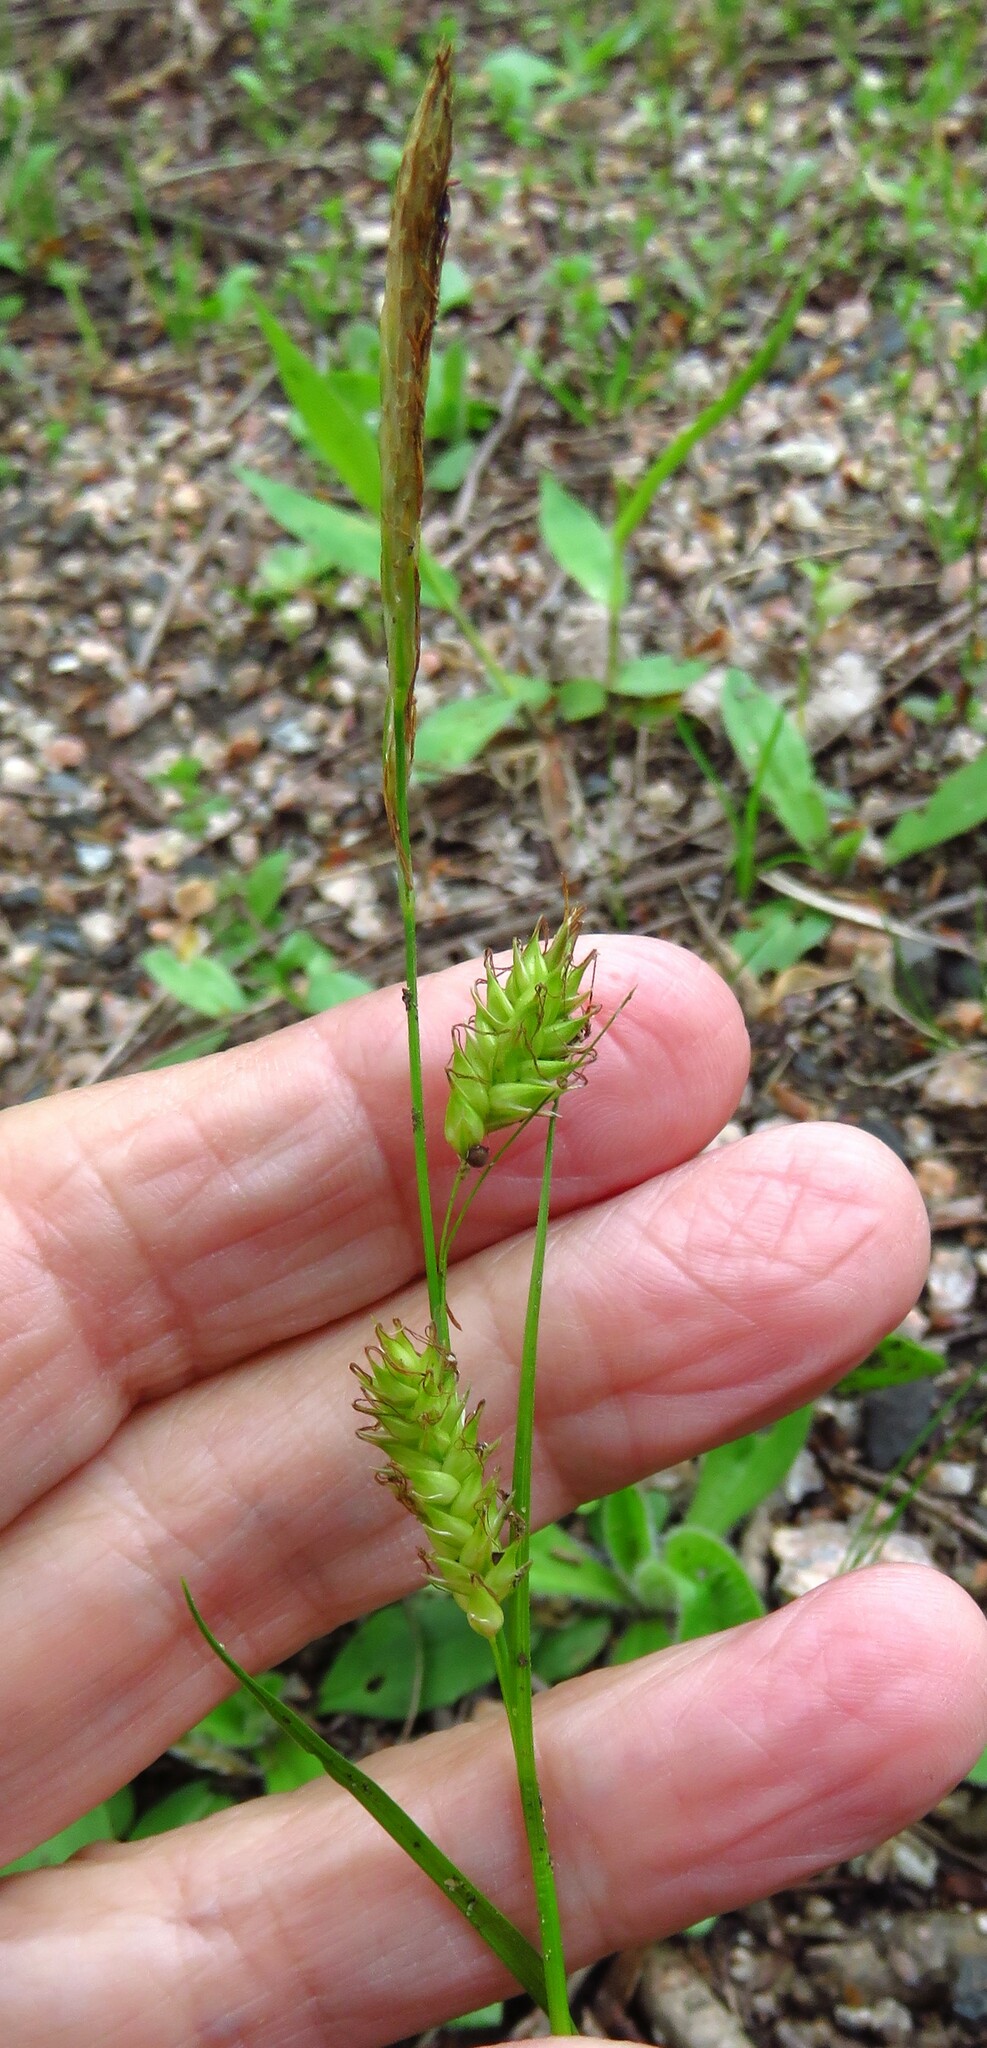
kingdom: Plantae
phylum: Tracheophyta
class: Liliopsida
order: Poales
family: Cyperaceae
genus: Carex
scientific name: Carex cherokeensis
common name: Cherokee sedge
